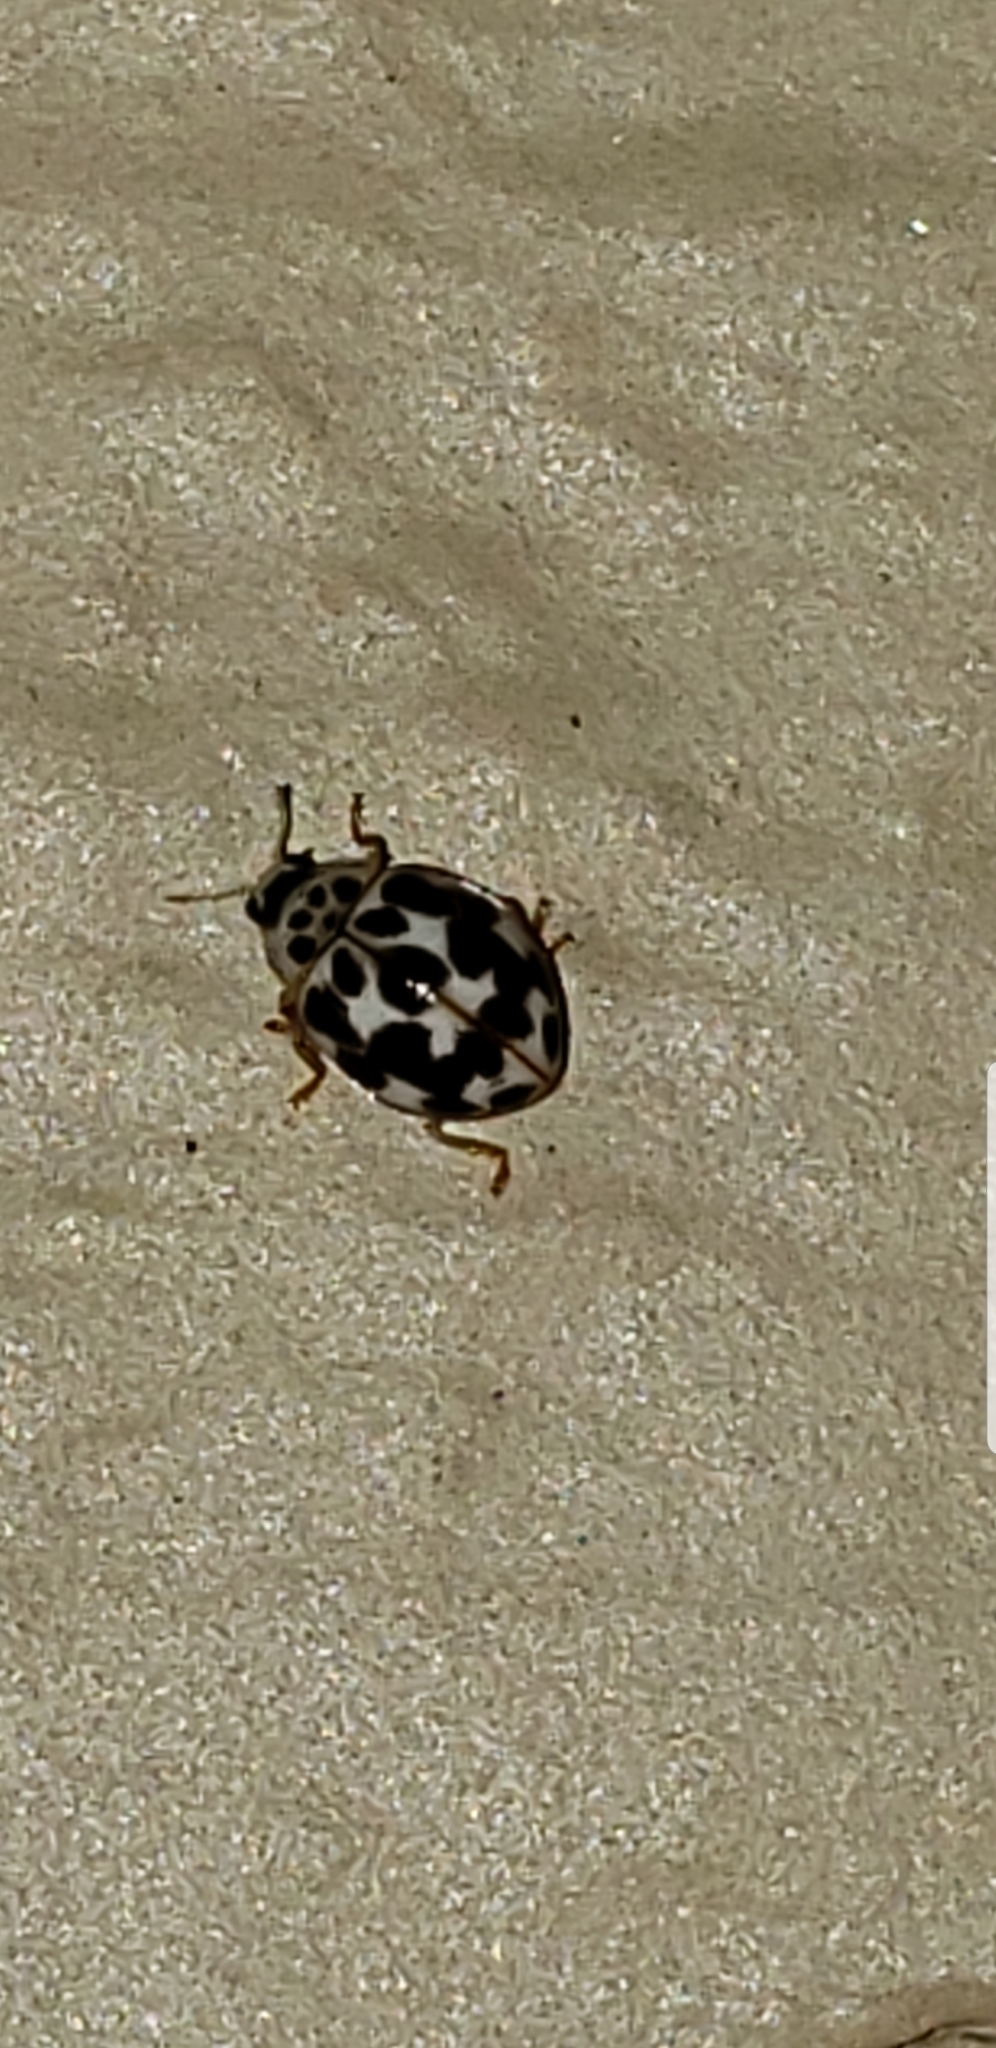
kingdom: Animalia
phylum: Arthropoda
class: Insecta
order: Coleoptera
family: Coccinellidae
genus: Psyllobora
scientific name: Psyllobora vigintimaculata
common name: Ladybird beetle
